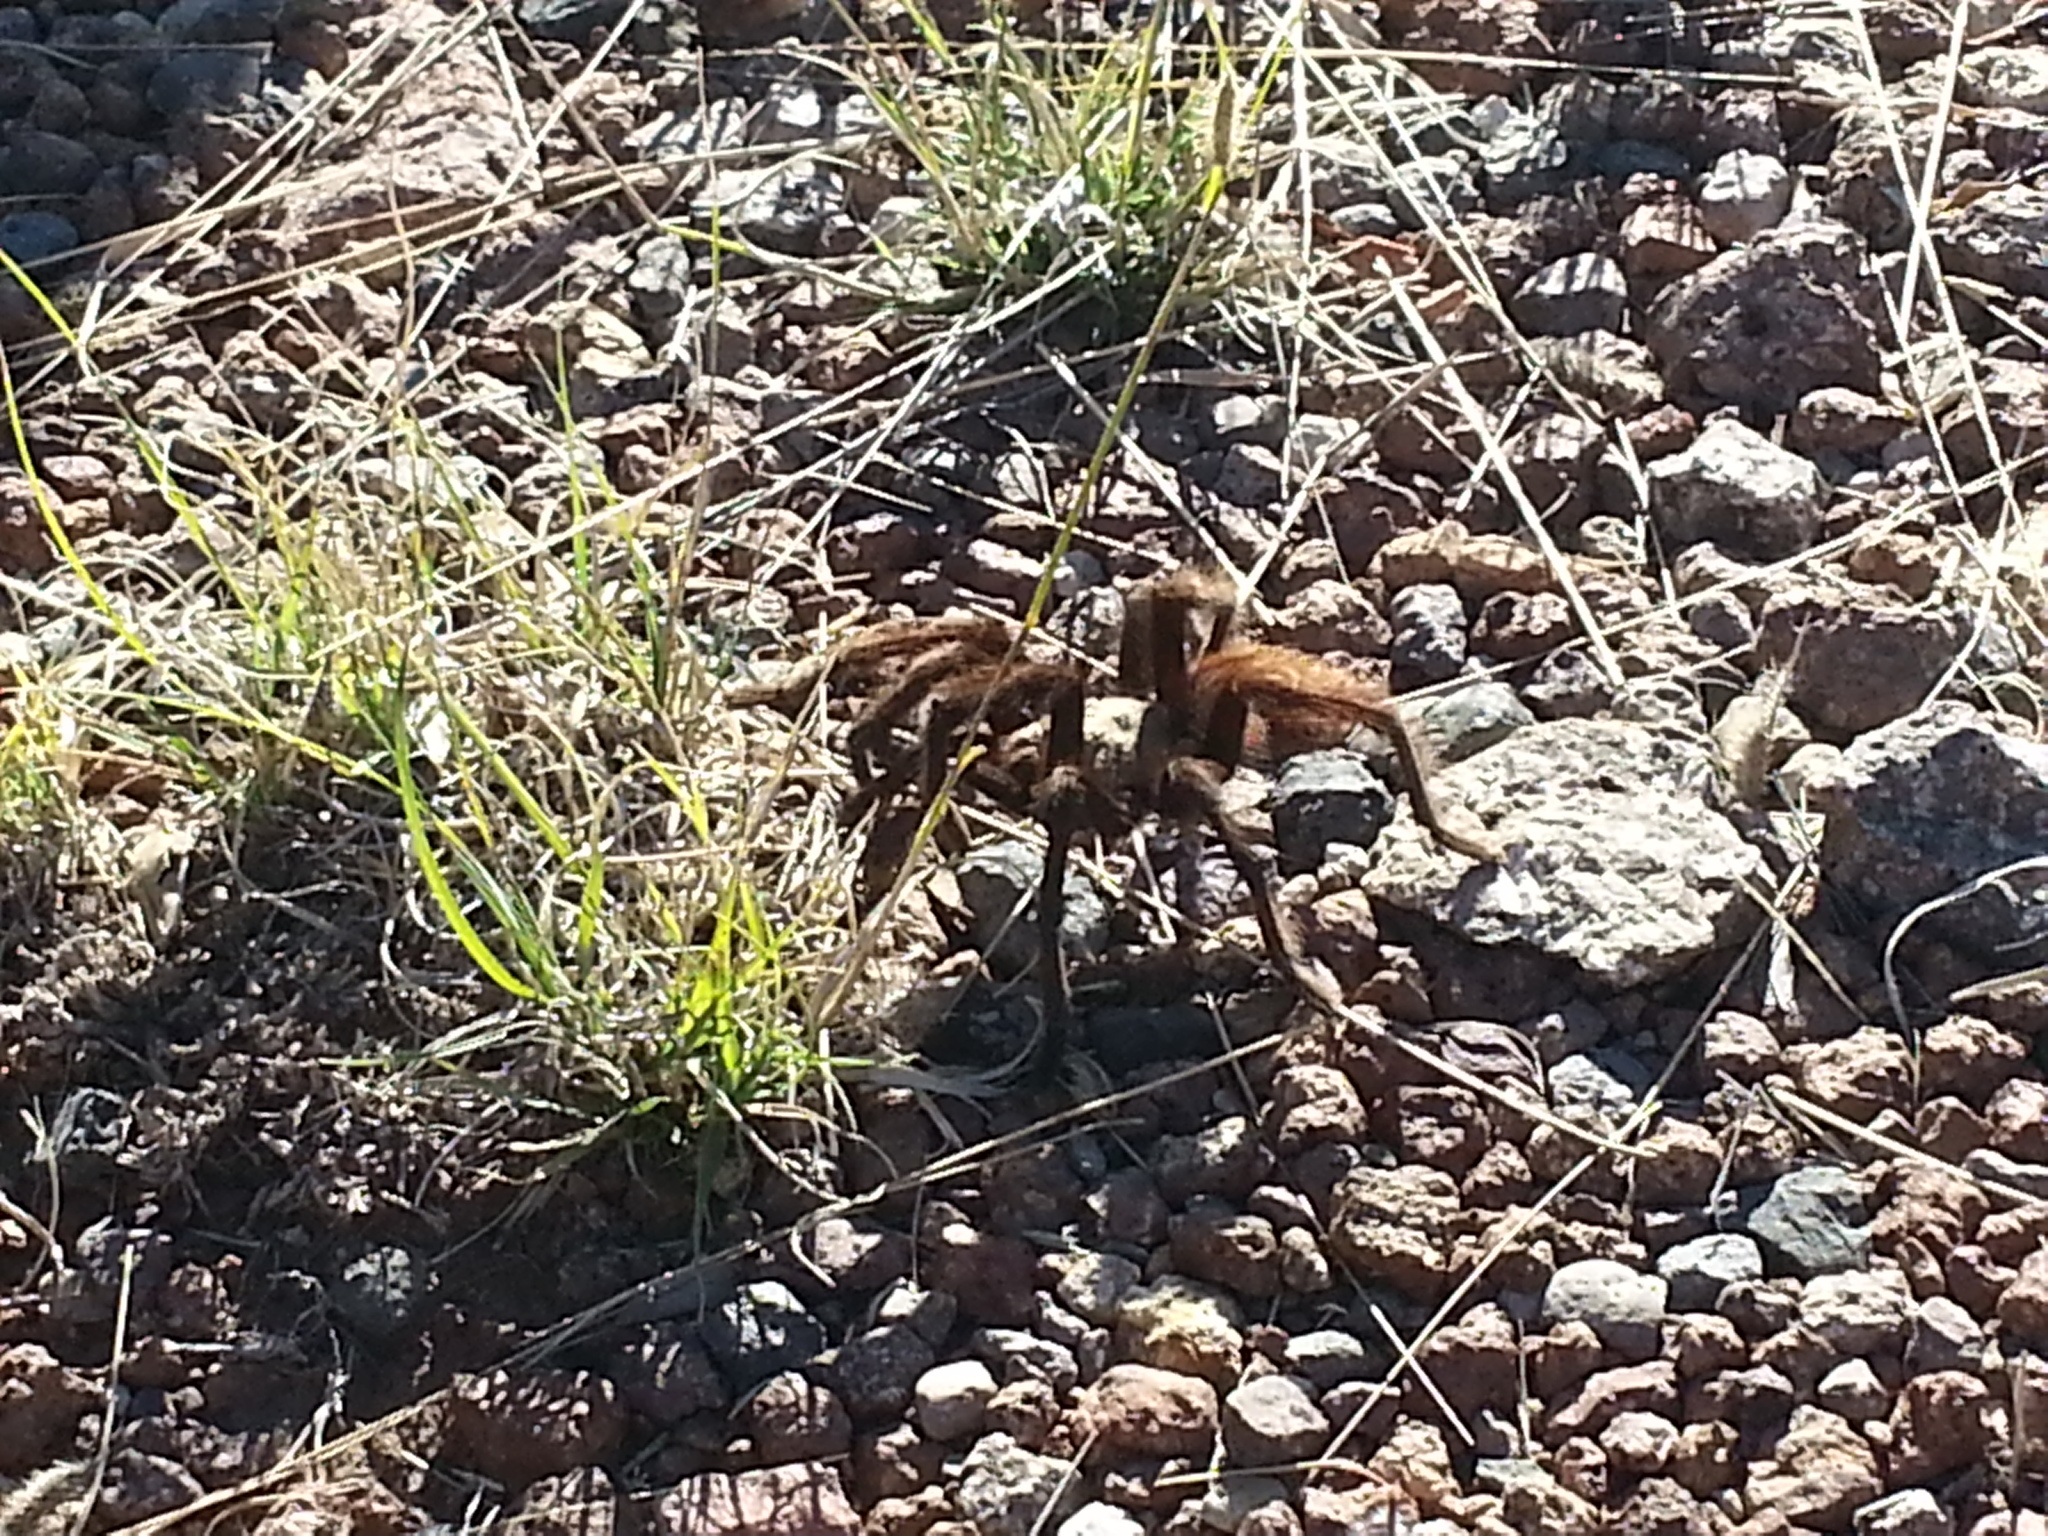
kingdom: Animalia
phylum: Arthropoda
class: Arachnida
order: Araneae
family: Theraphosidae
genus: Aphonopelma
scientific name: Aphonopelma hentzi
